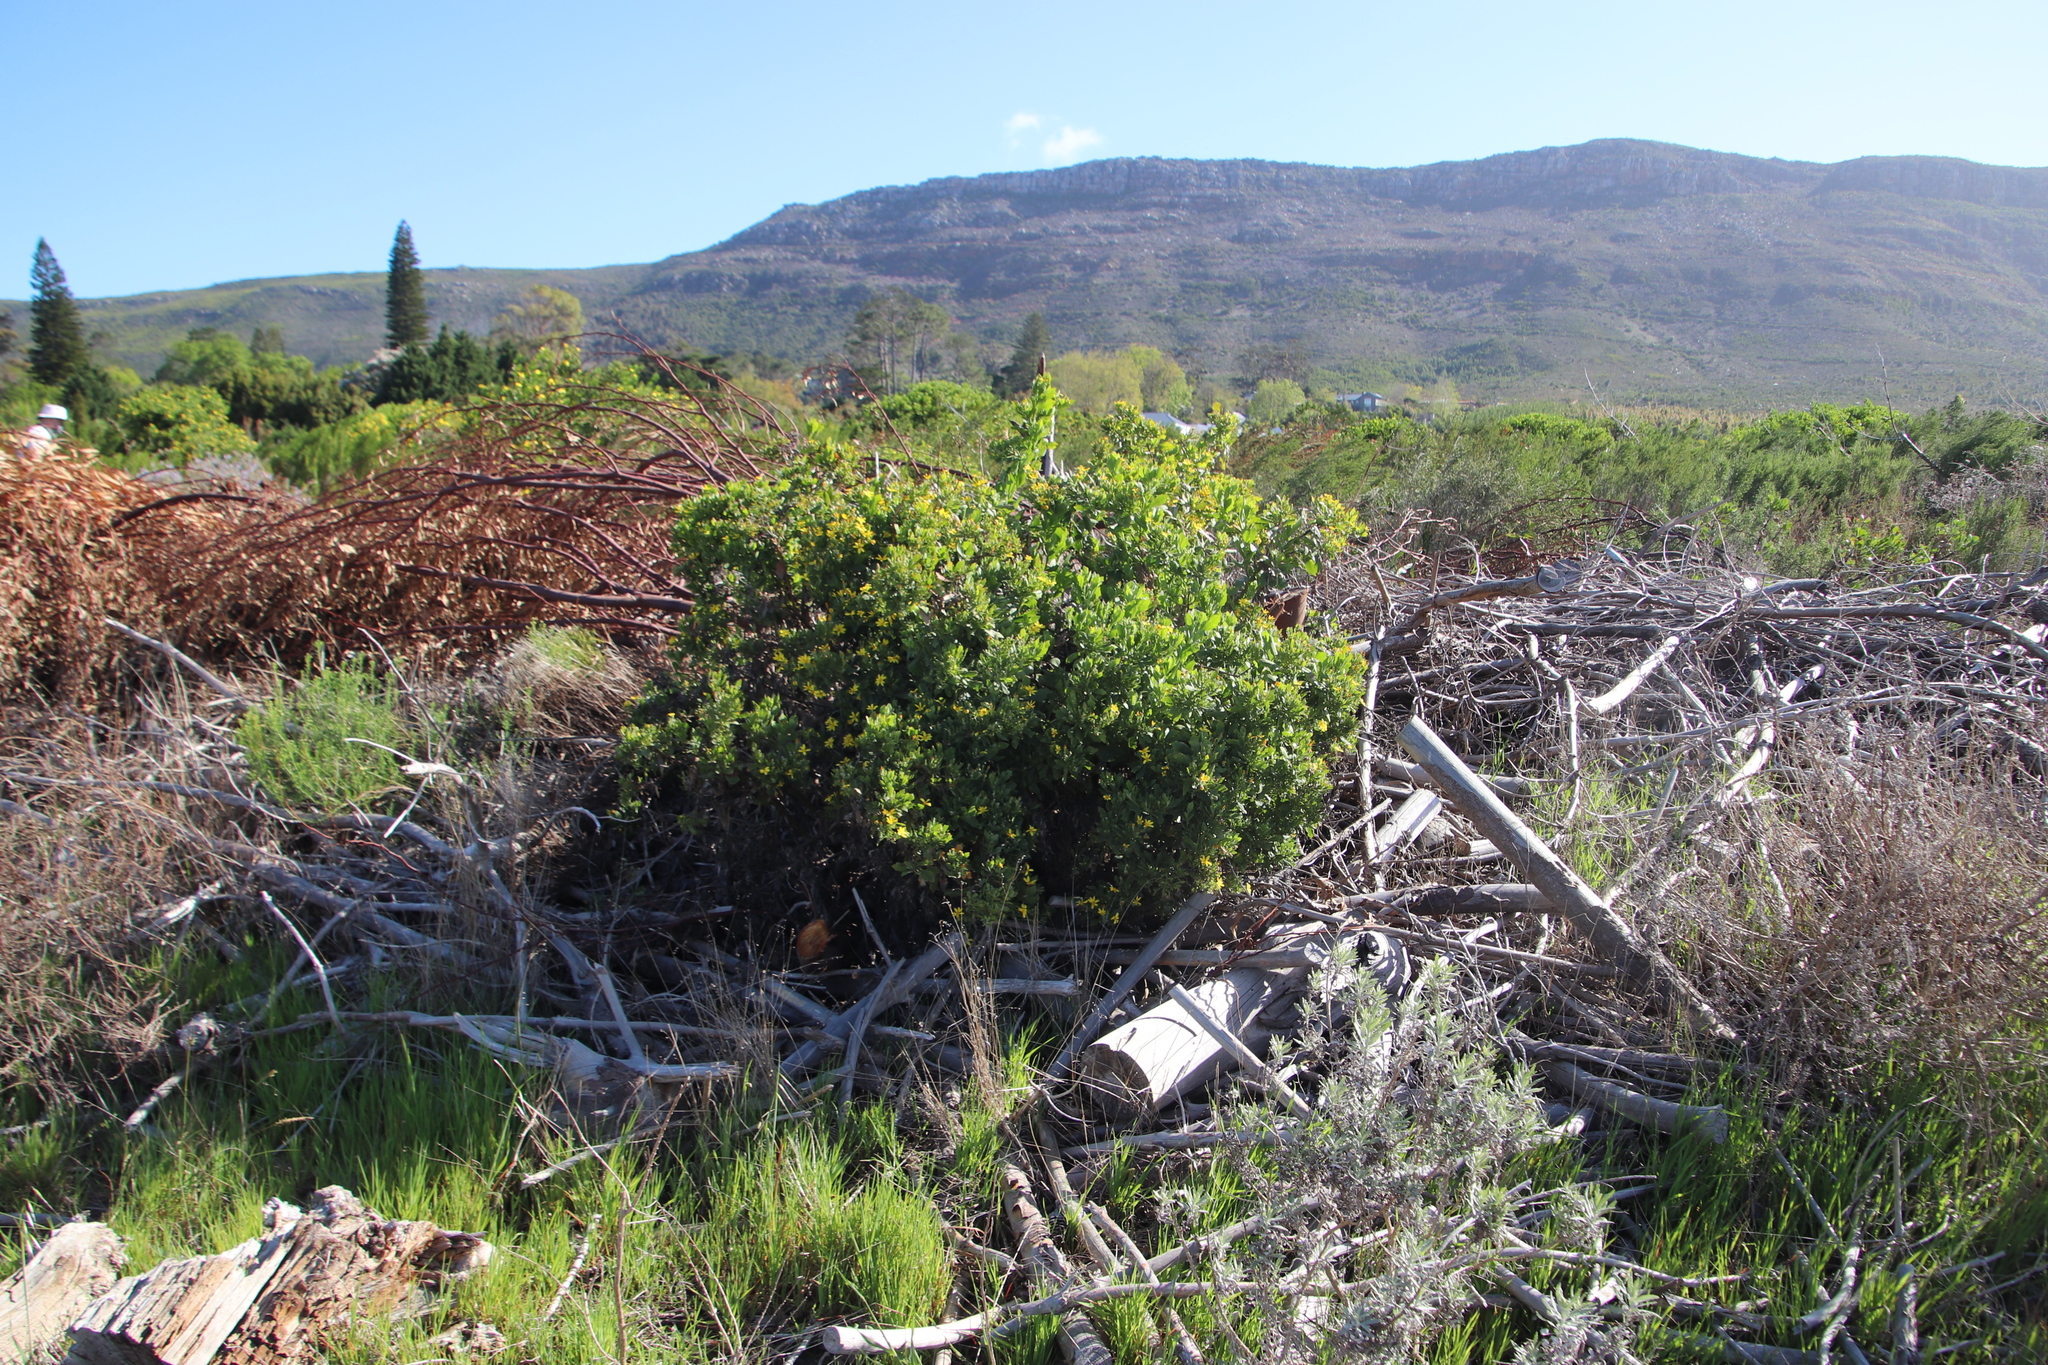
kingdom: Plantae
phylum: Tracheophyta
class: Magnoliopsida
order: Asterales
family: Asteraceae
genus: Osteospermum
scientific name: Osteospermum moniliferum
